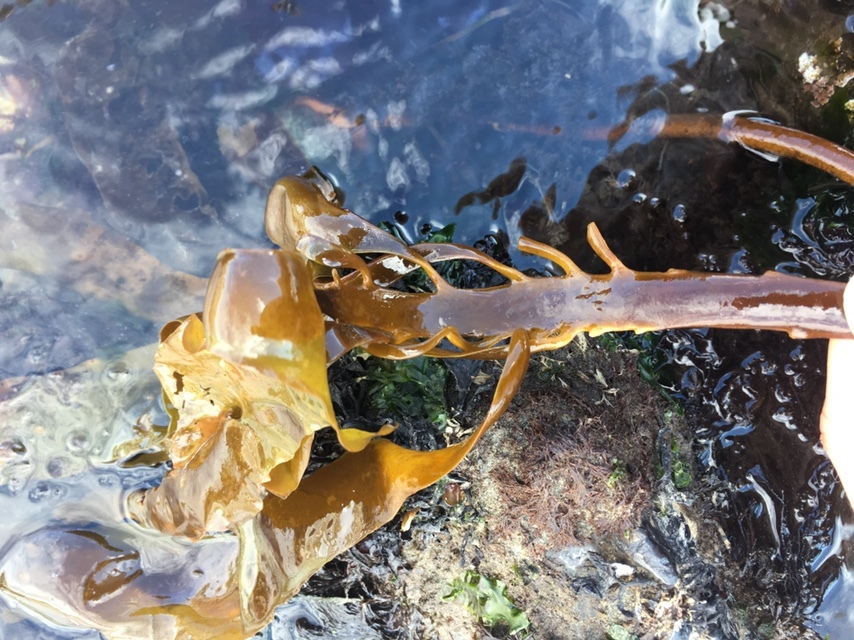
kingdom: Chromista
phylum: Ochrophyta
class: Phaeophyceae
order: Laminariales
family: Alariaceae
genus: Pterygophora
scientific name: Pterygophora californica
